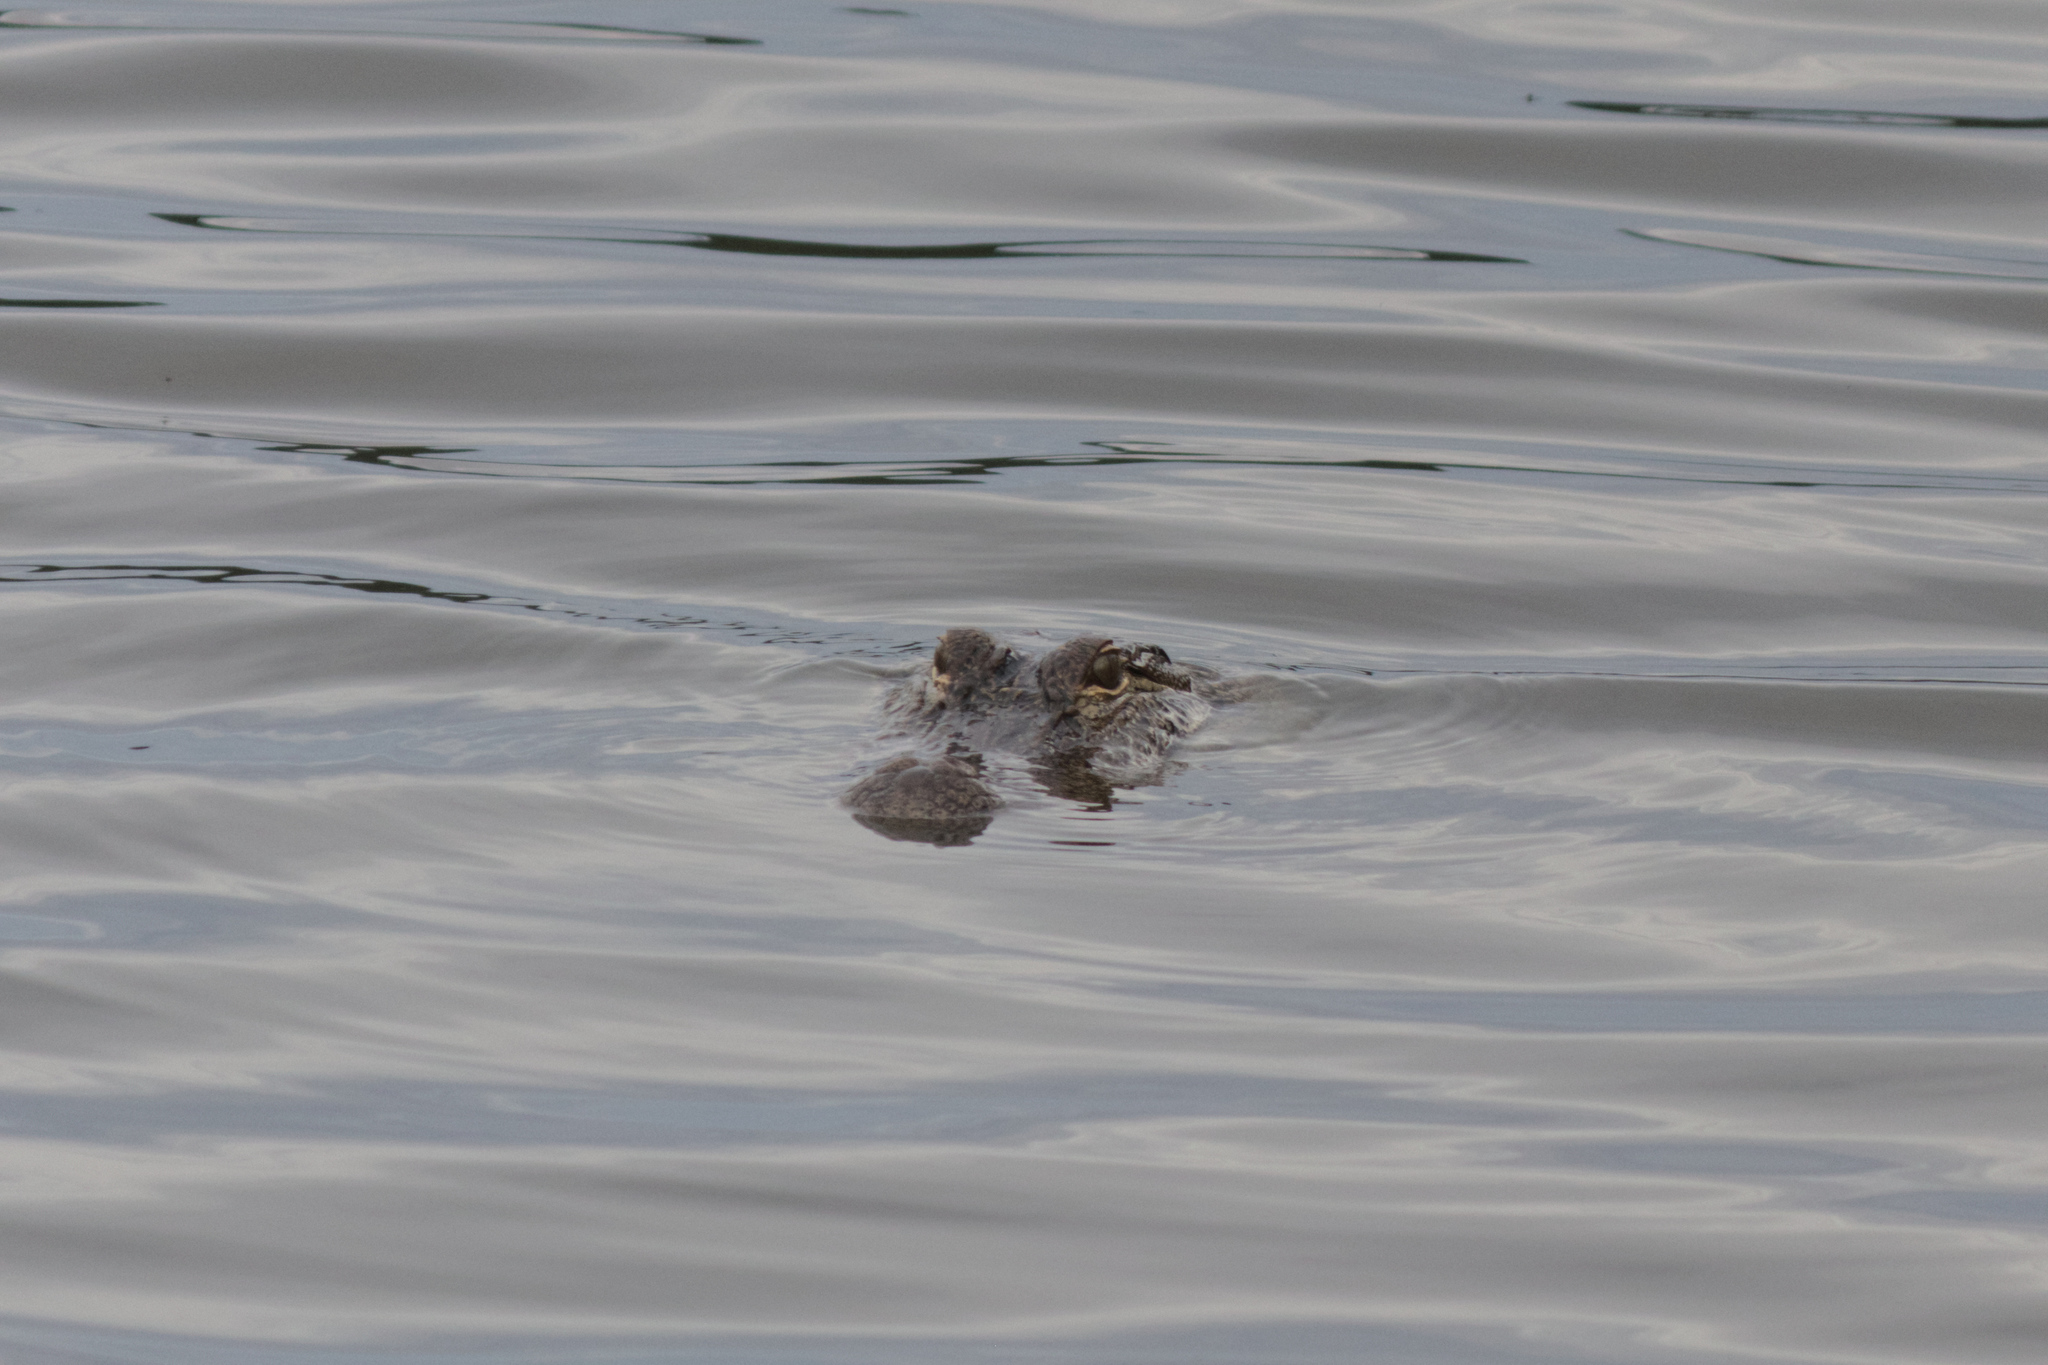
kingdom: Animalia
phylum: Chordata
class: Crocodylia
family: Alligatoridae
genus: Alligator
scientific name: Alligator mississippiensis
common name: American alligator
